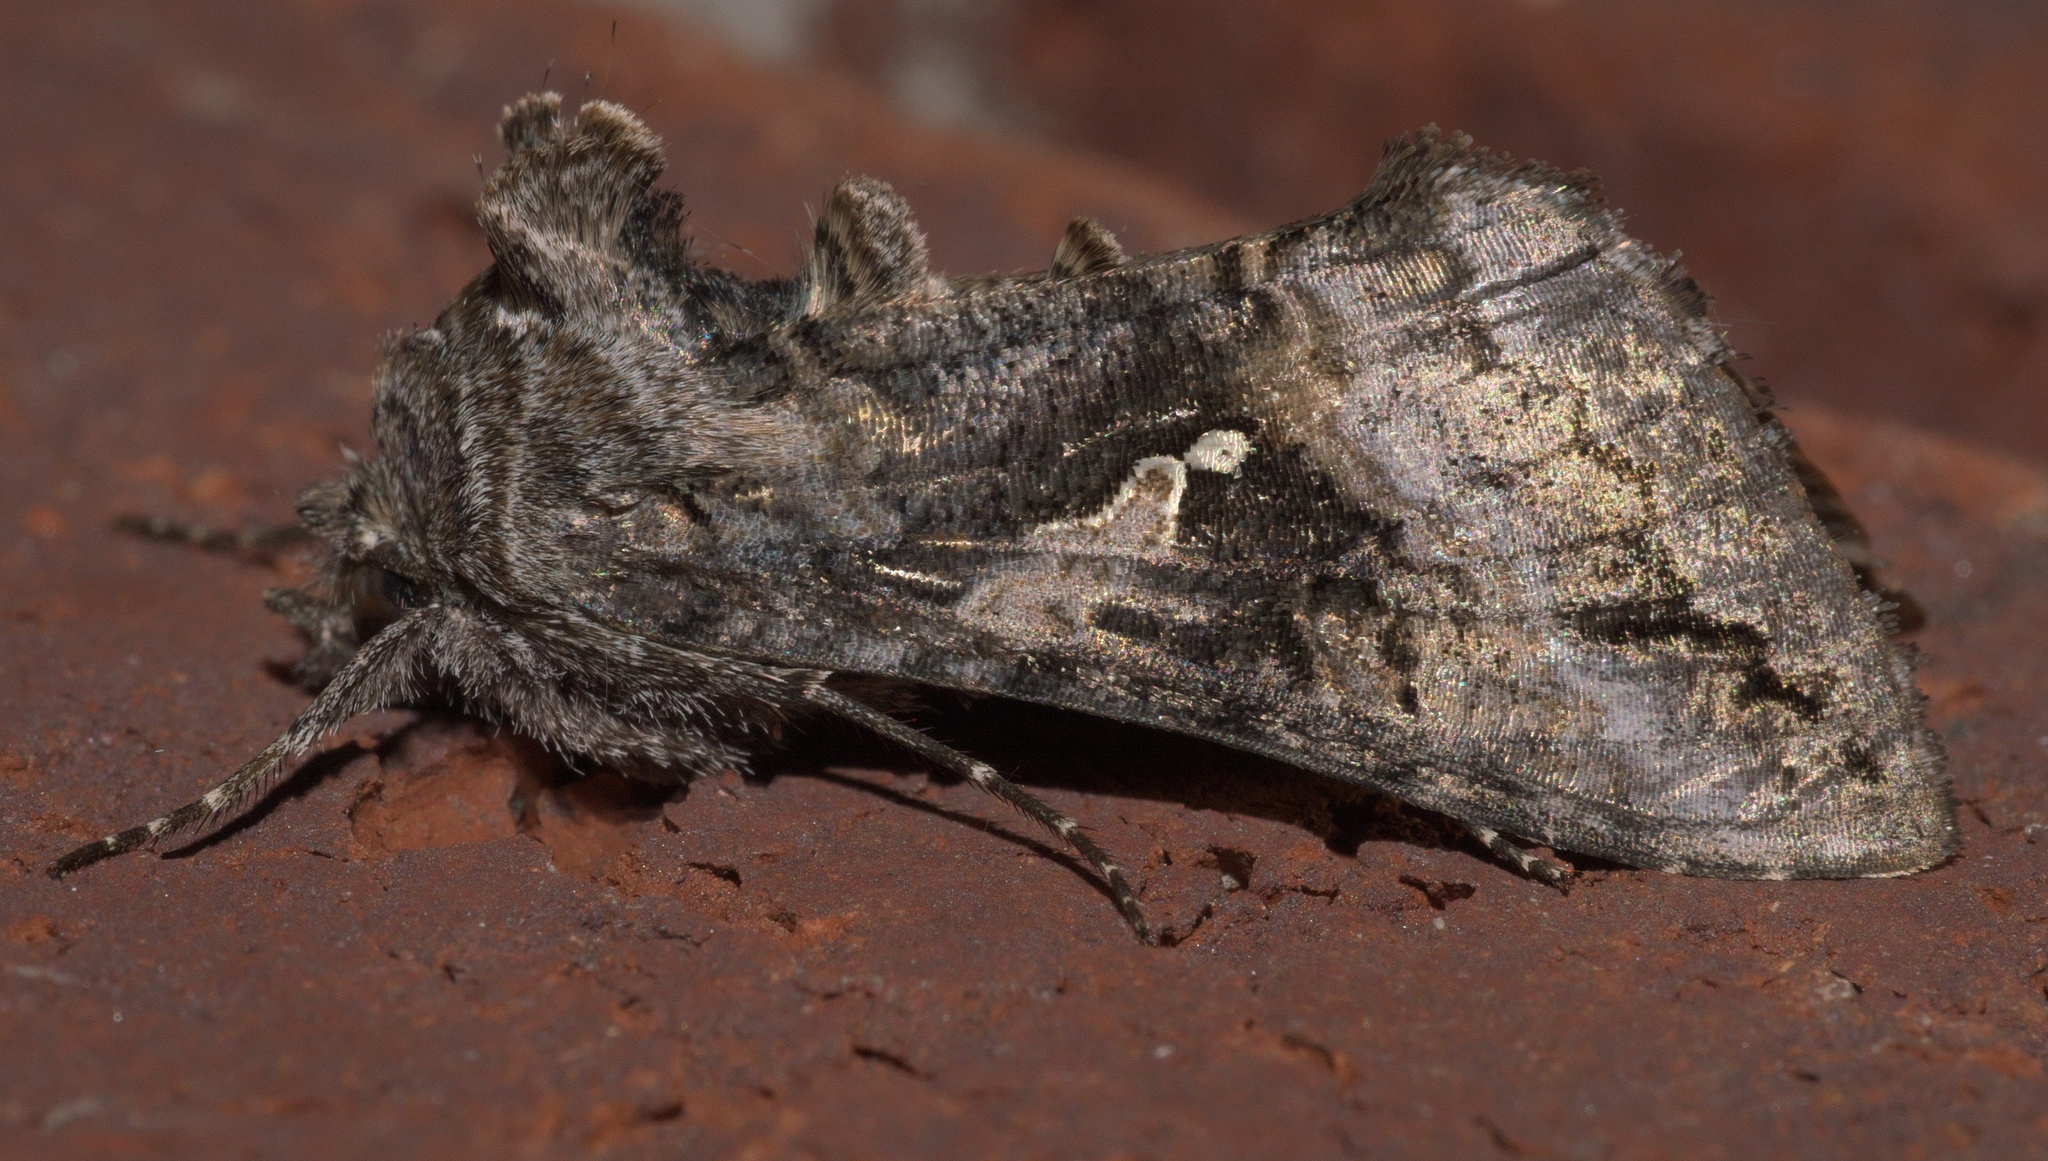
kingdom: Animalia
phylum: Arthropoda
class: Insecta
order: Lepidoptera
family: Noctuidae
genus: Rachiplusia
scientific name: Rachiplusia ou
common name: Gray looper moth
